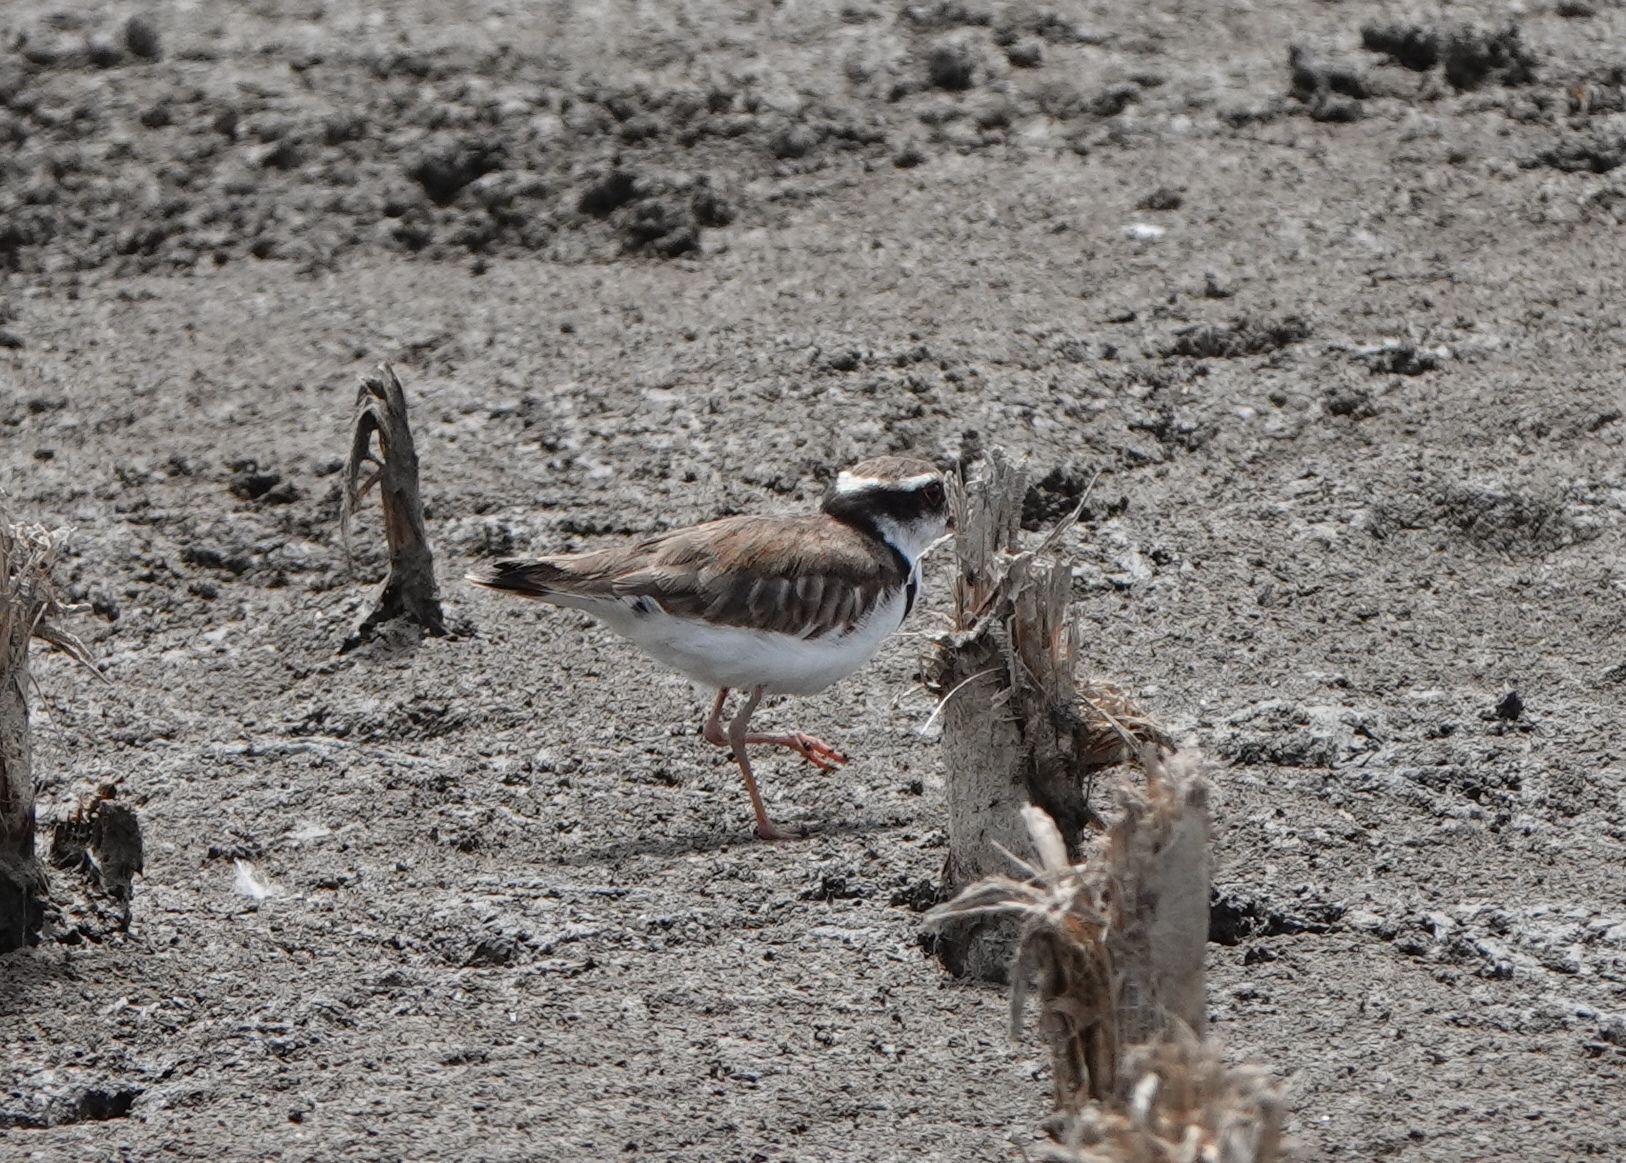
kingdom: Animalia
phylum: Chordata
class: Aves
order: Charadriiformes
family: Charadriidae
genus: Elseyornis
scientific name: Elseyornis melanops
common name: Black-fronted dotterel
